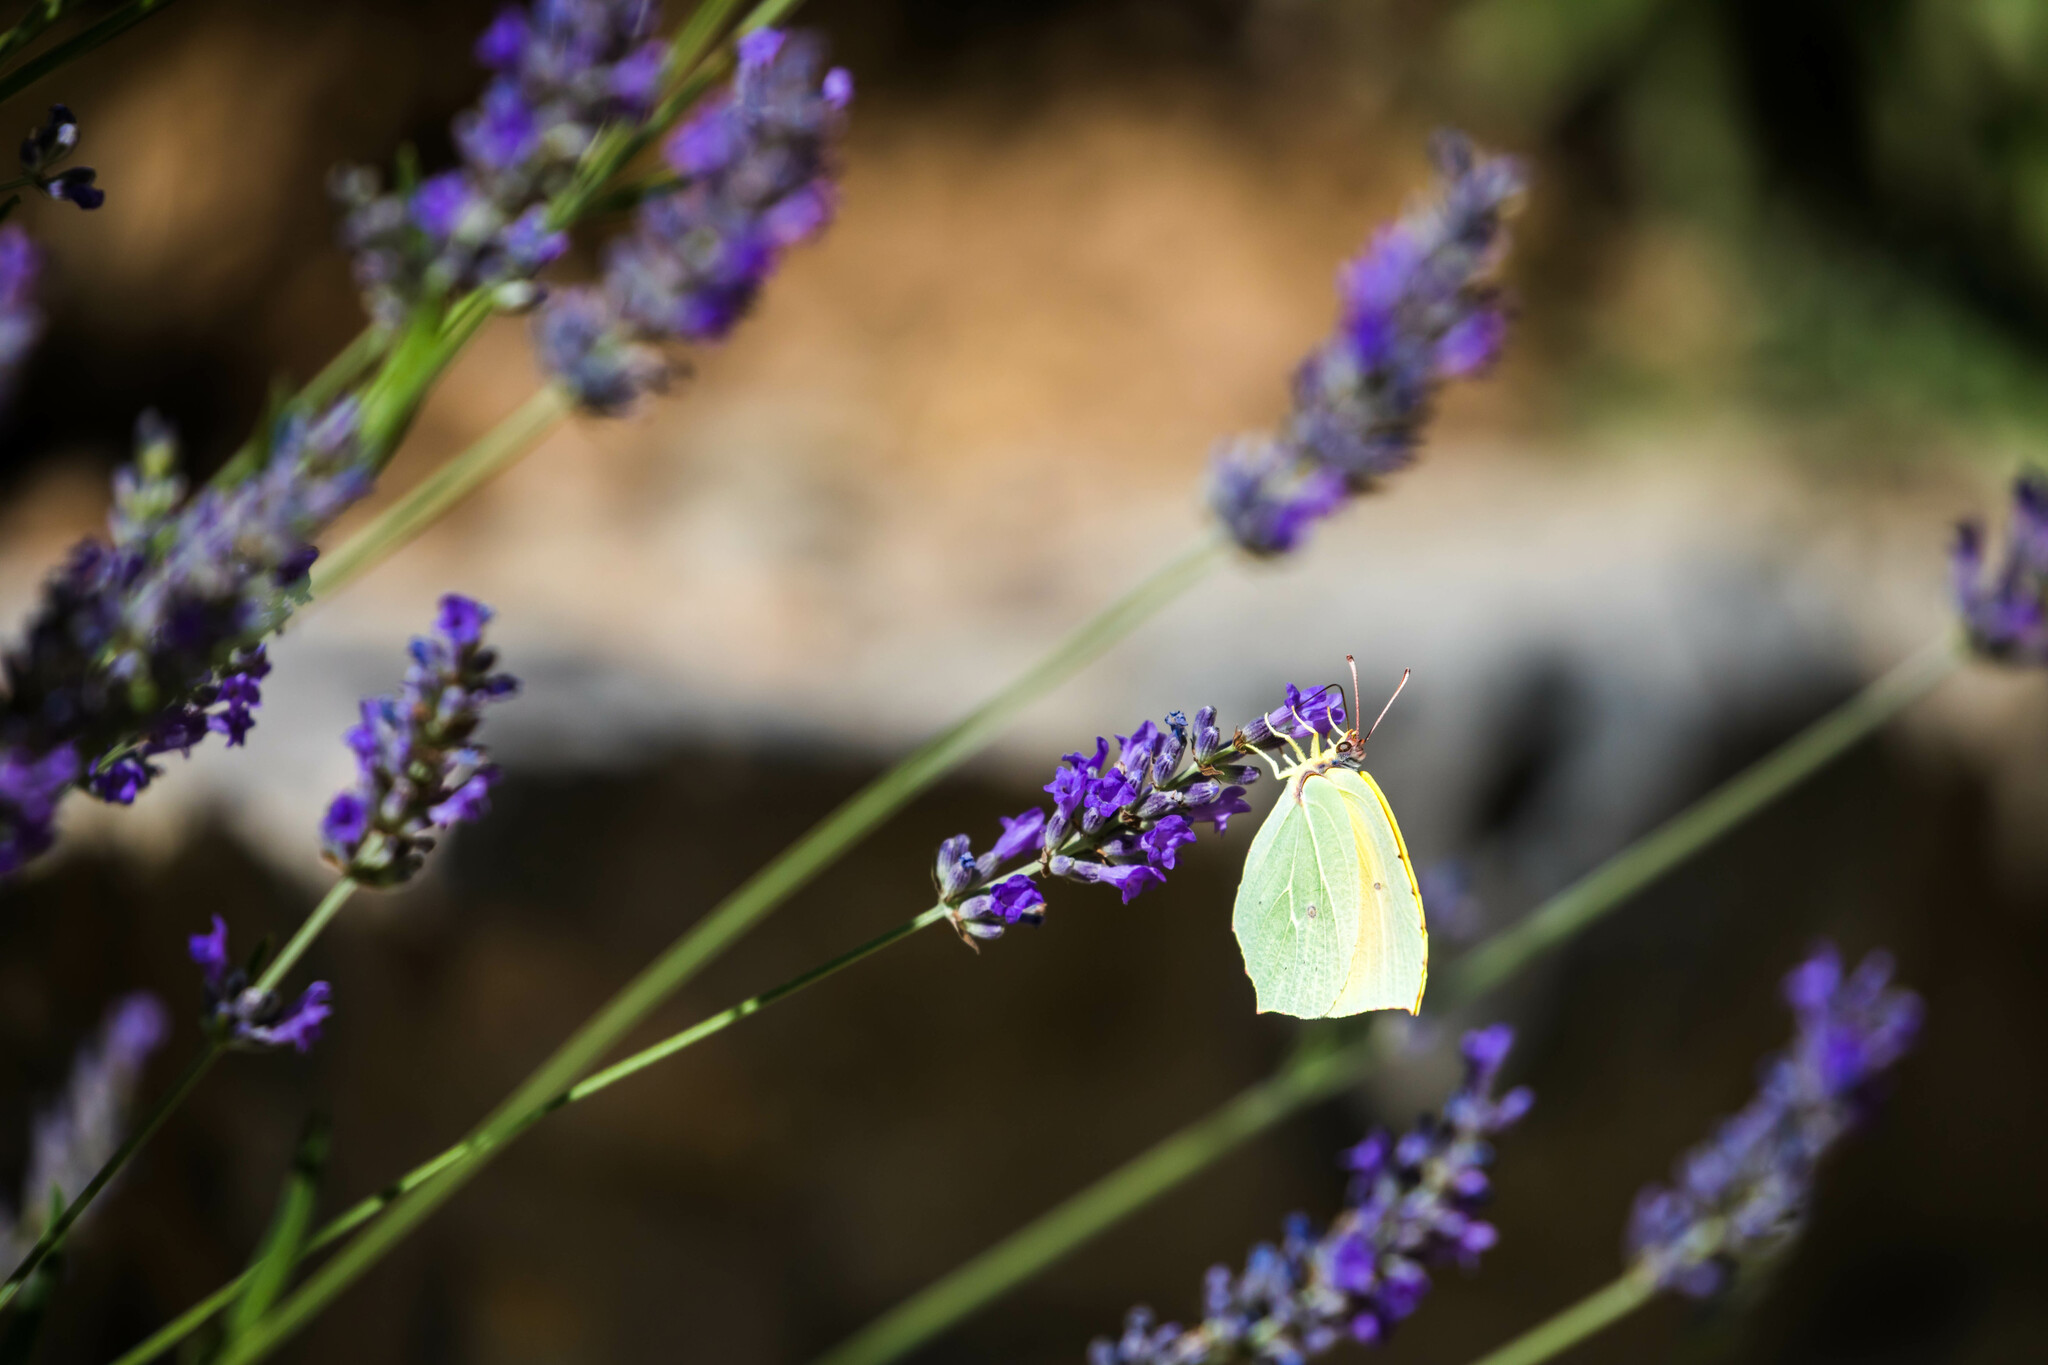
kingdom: Animalia
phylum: Arthropoda
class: Insecta
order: Lepidoptera
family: Pieridae
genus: Gonepteryx
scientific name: Gonepteryx cleopatra
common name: Cleopatra
